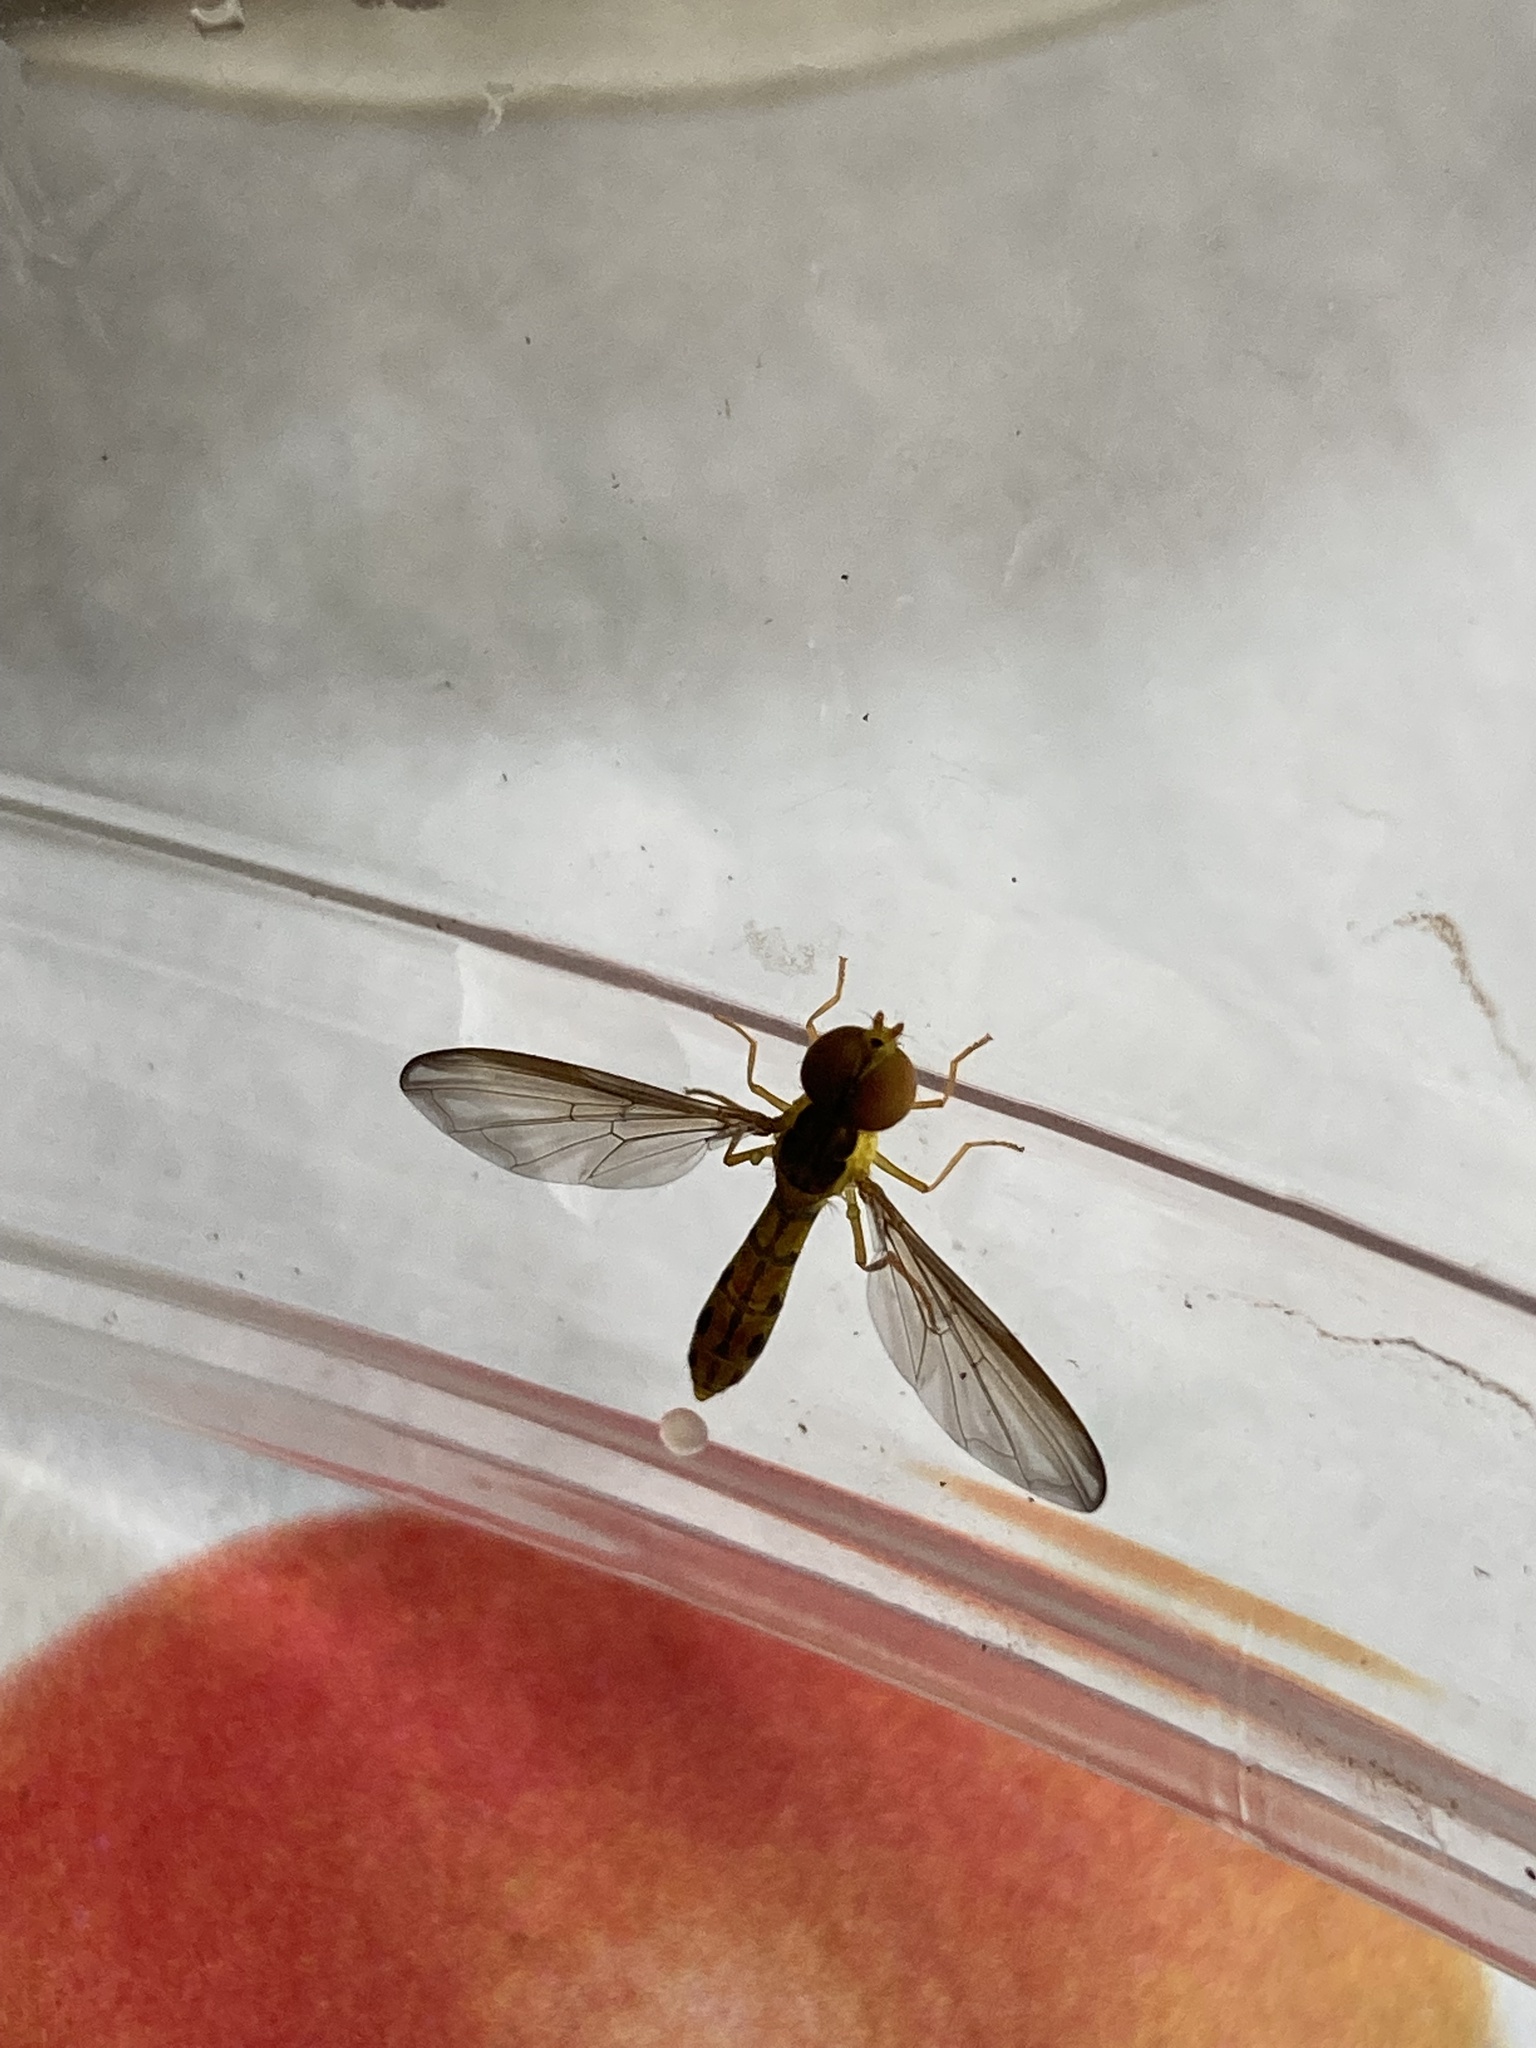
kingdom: Animalia
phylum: Arthropoda
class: Insecta
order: Diptera
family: Syrphidae
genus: Nuntianus
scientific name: Nuntianus cubanus
